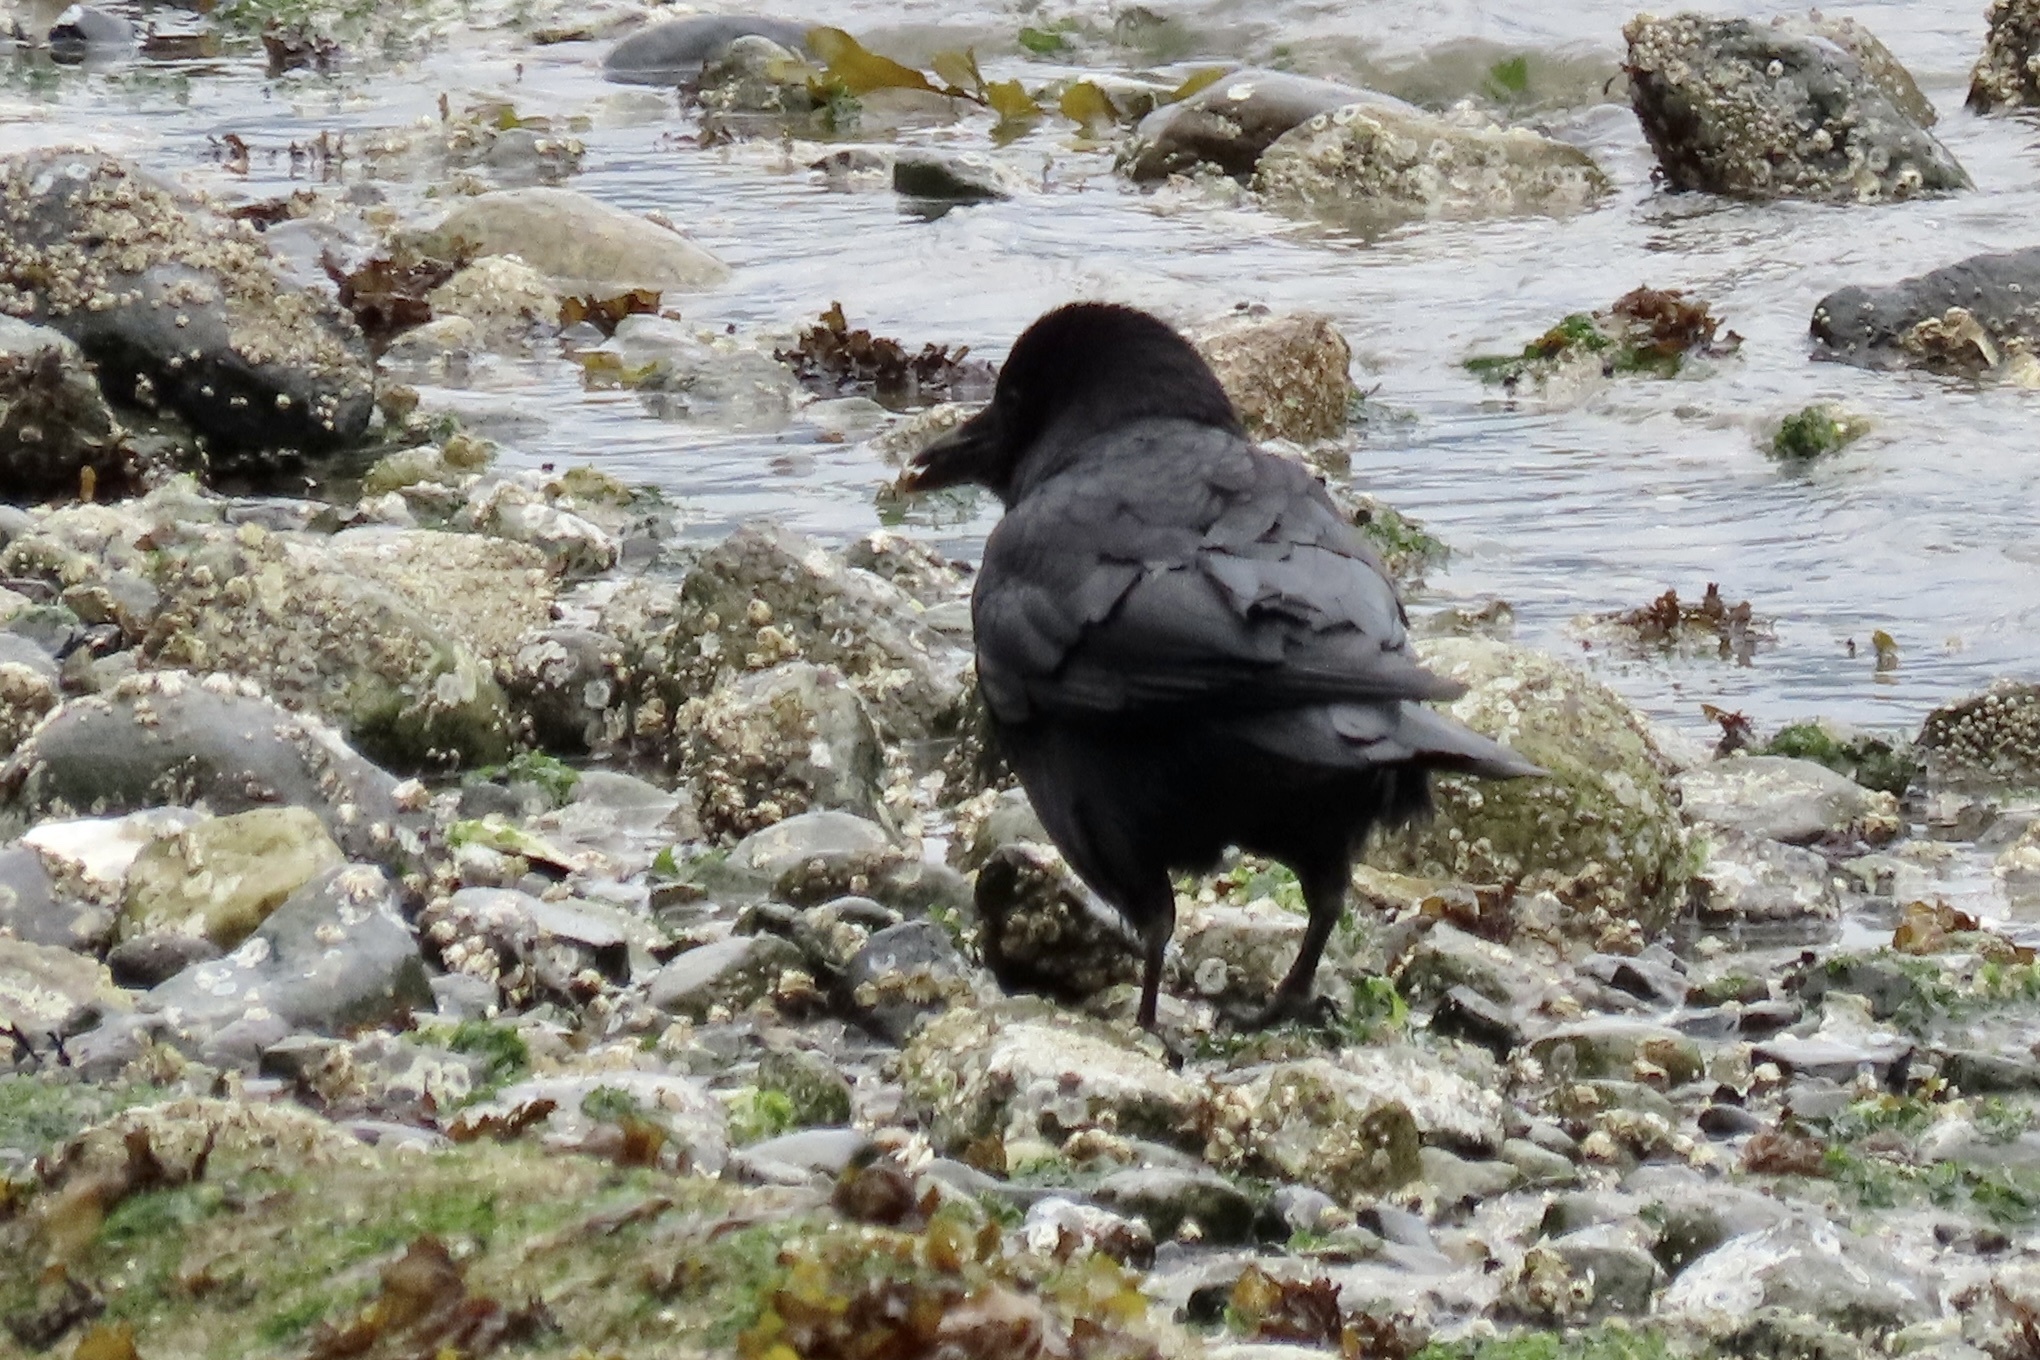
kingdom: Animalia
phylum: Chordata
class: Aves
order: Passeriformes
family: Corvidae
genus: Corvus
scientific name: Corvus brachyrhynchos
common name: American crow
